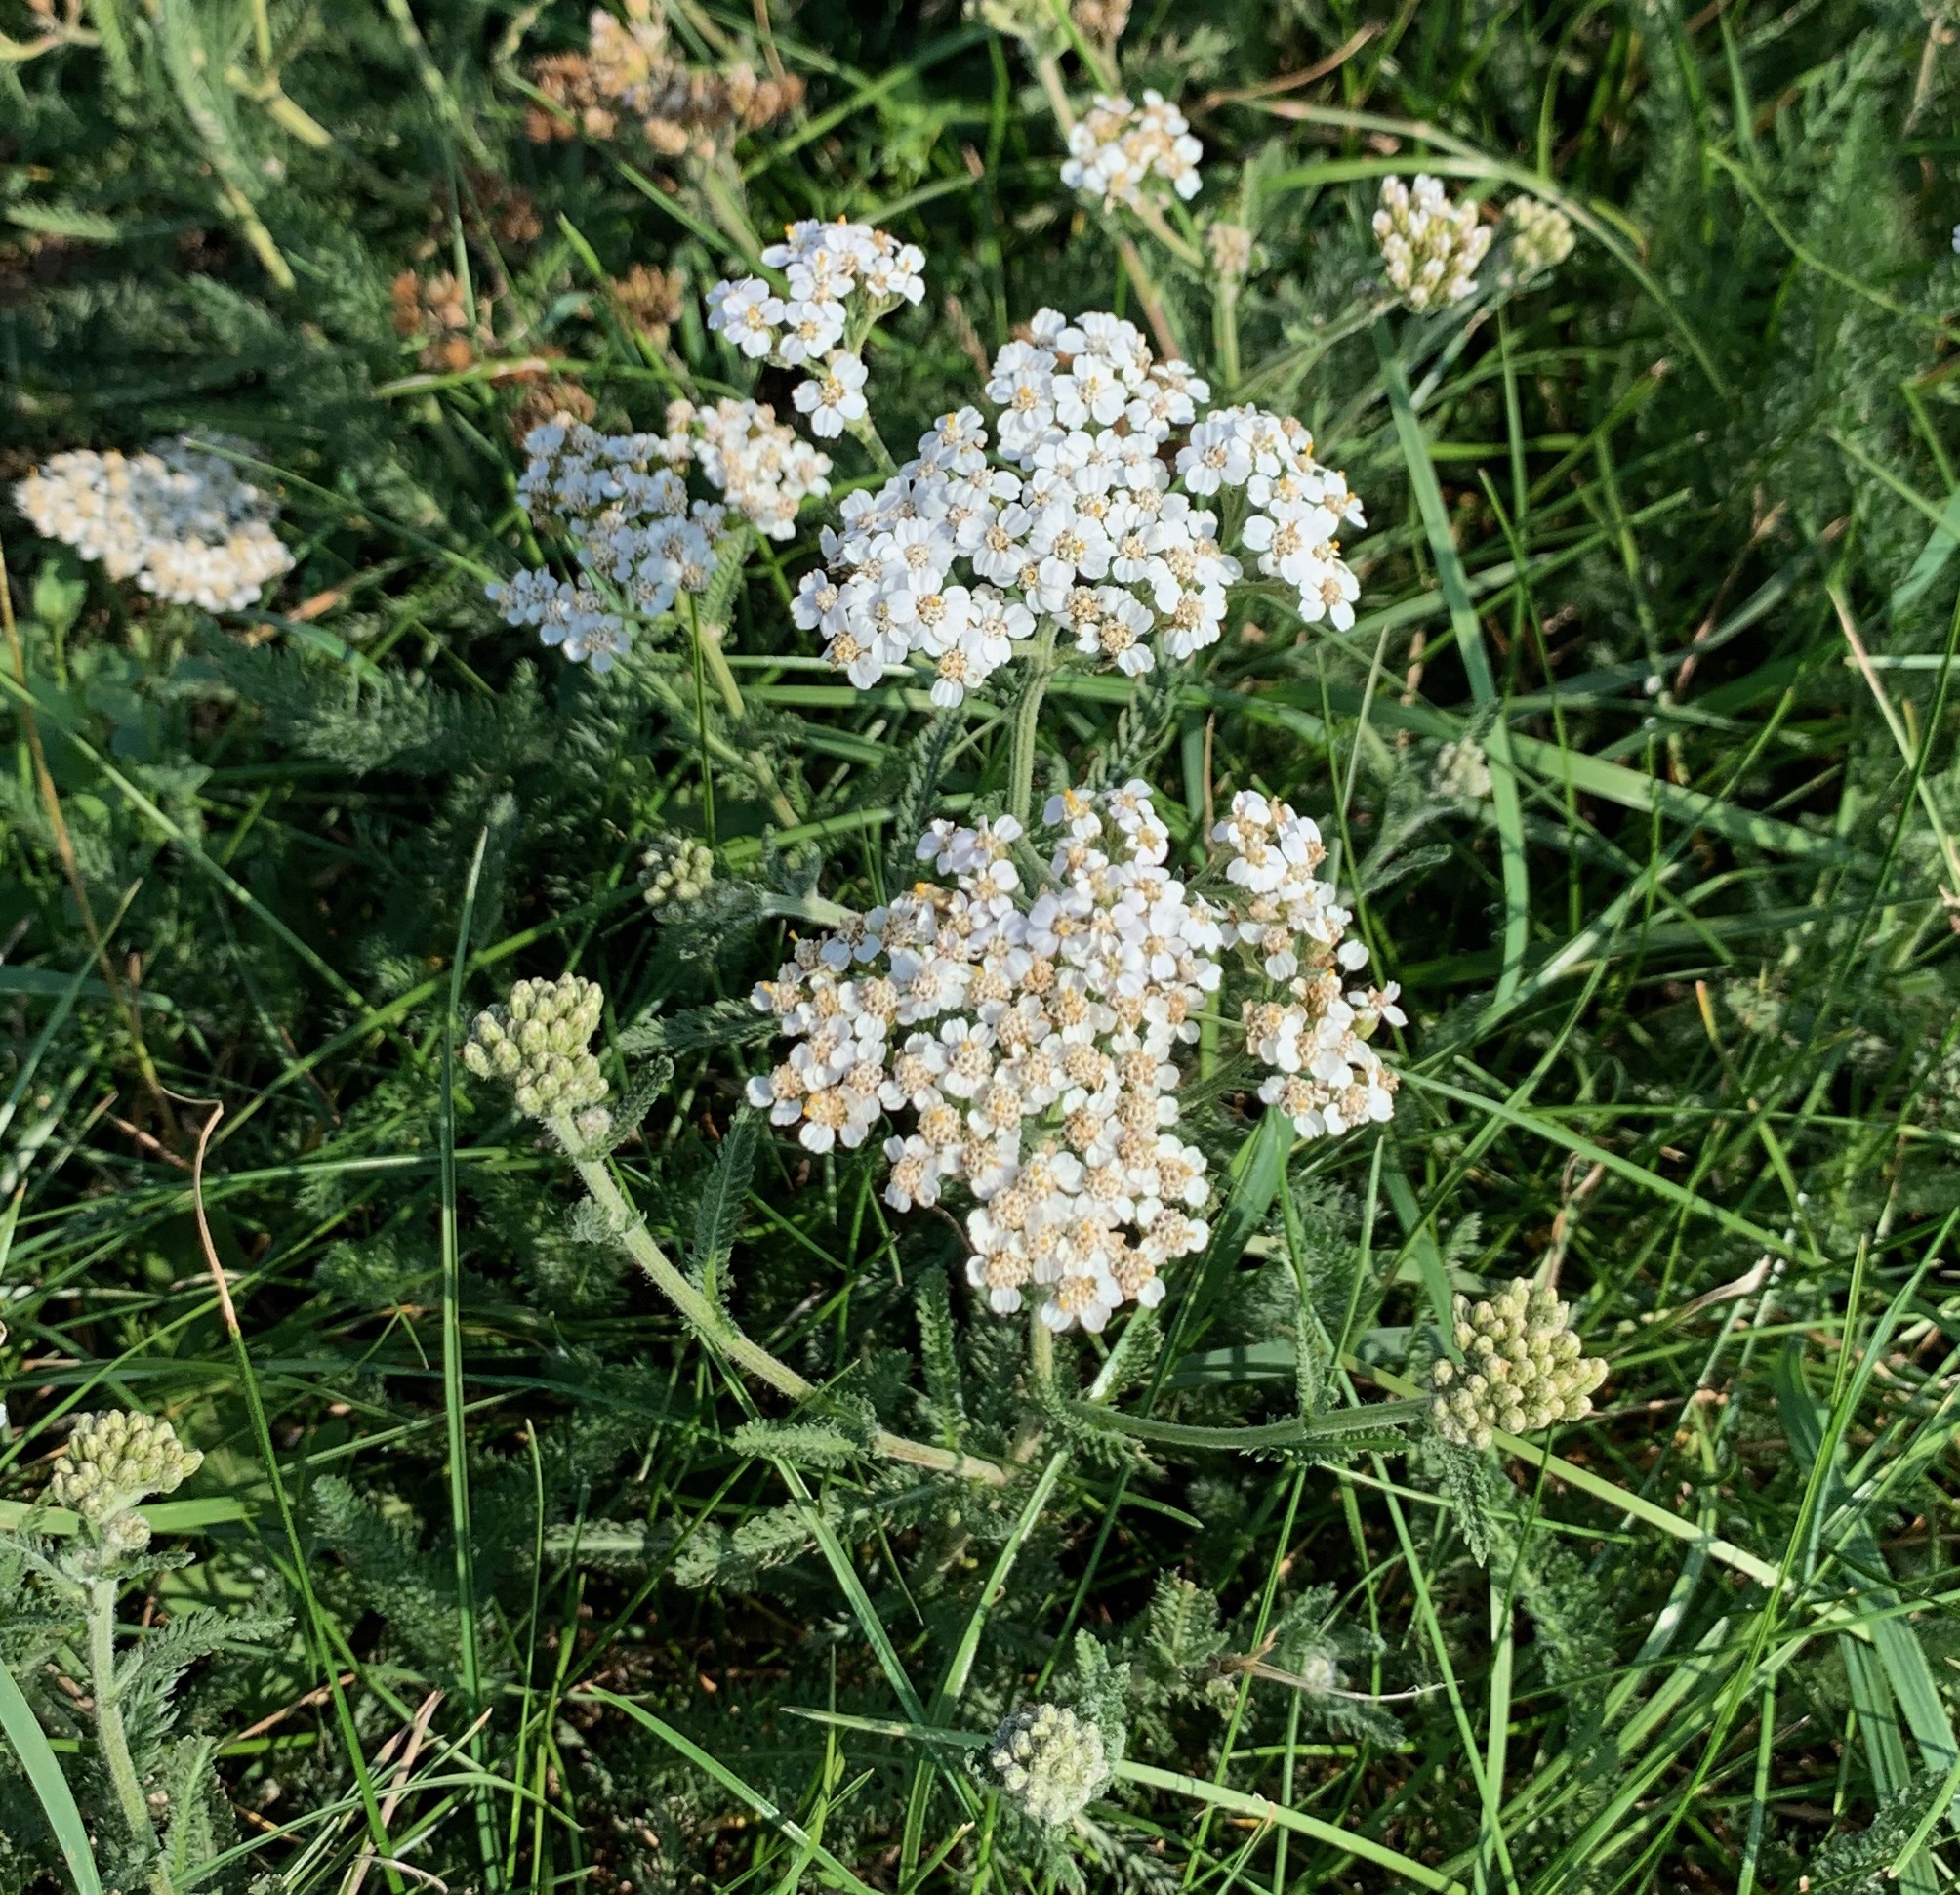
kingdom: Plantae
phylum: Tracheophyta
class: Magnoliopsida
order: Asterales
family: Asteraceae
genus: Achillea
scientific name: Achillea millefolium
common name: Yarrow
